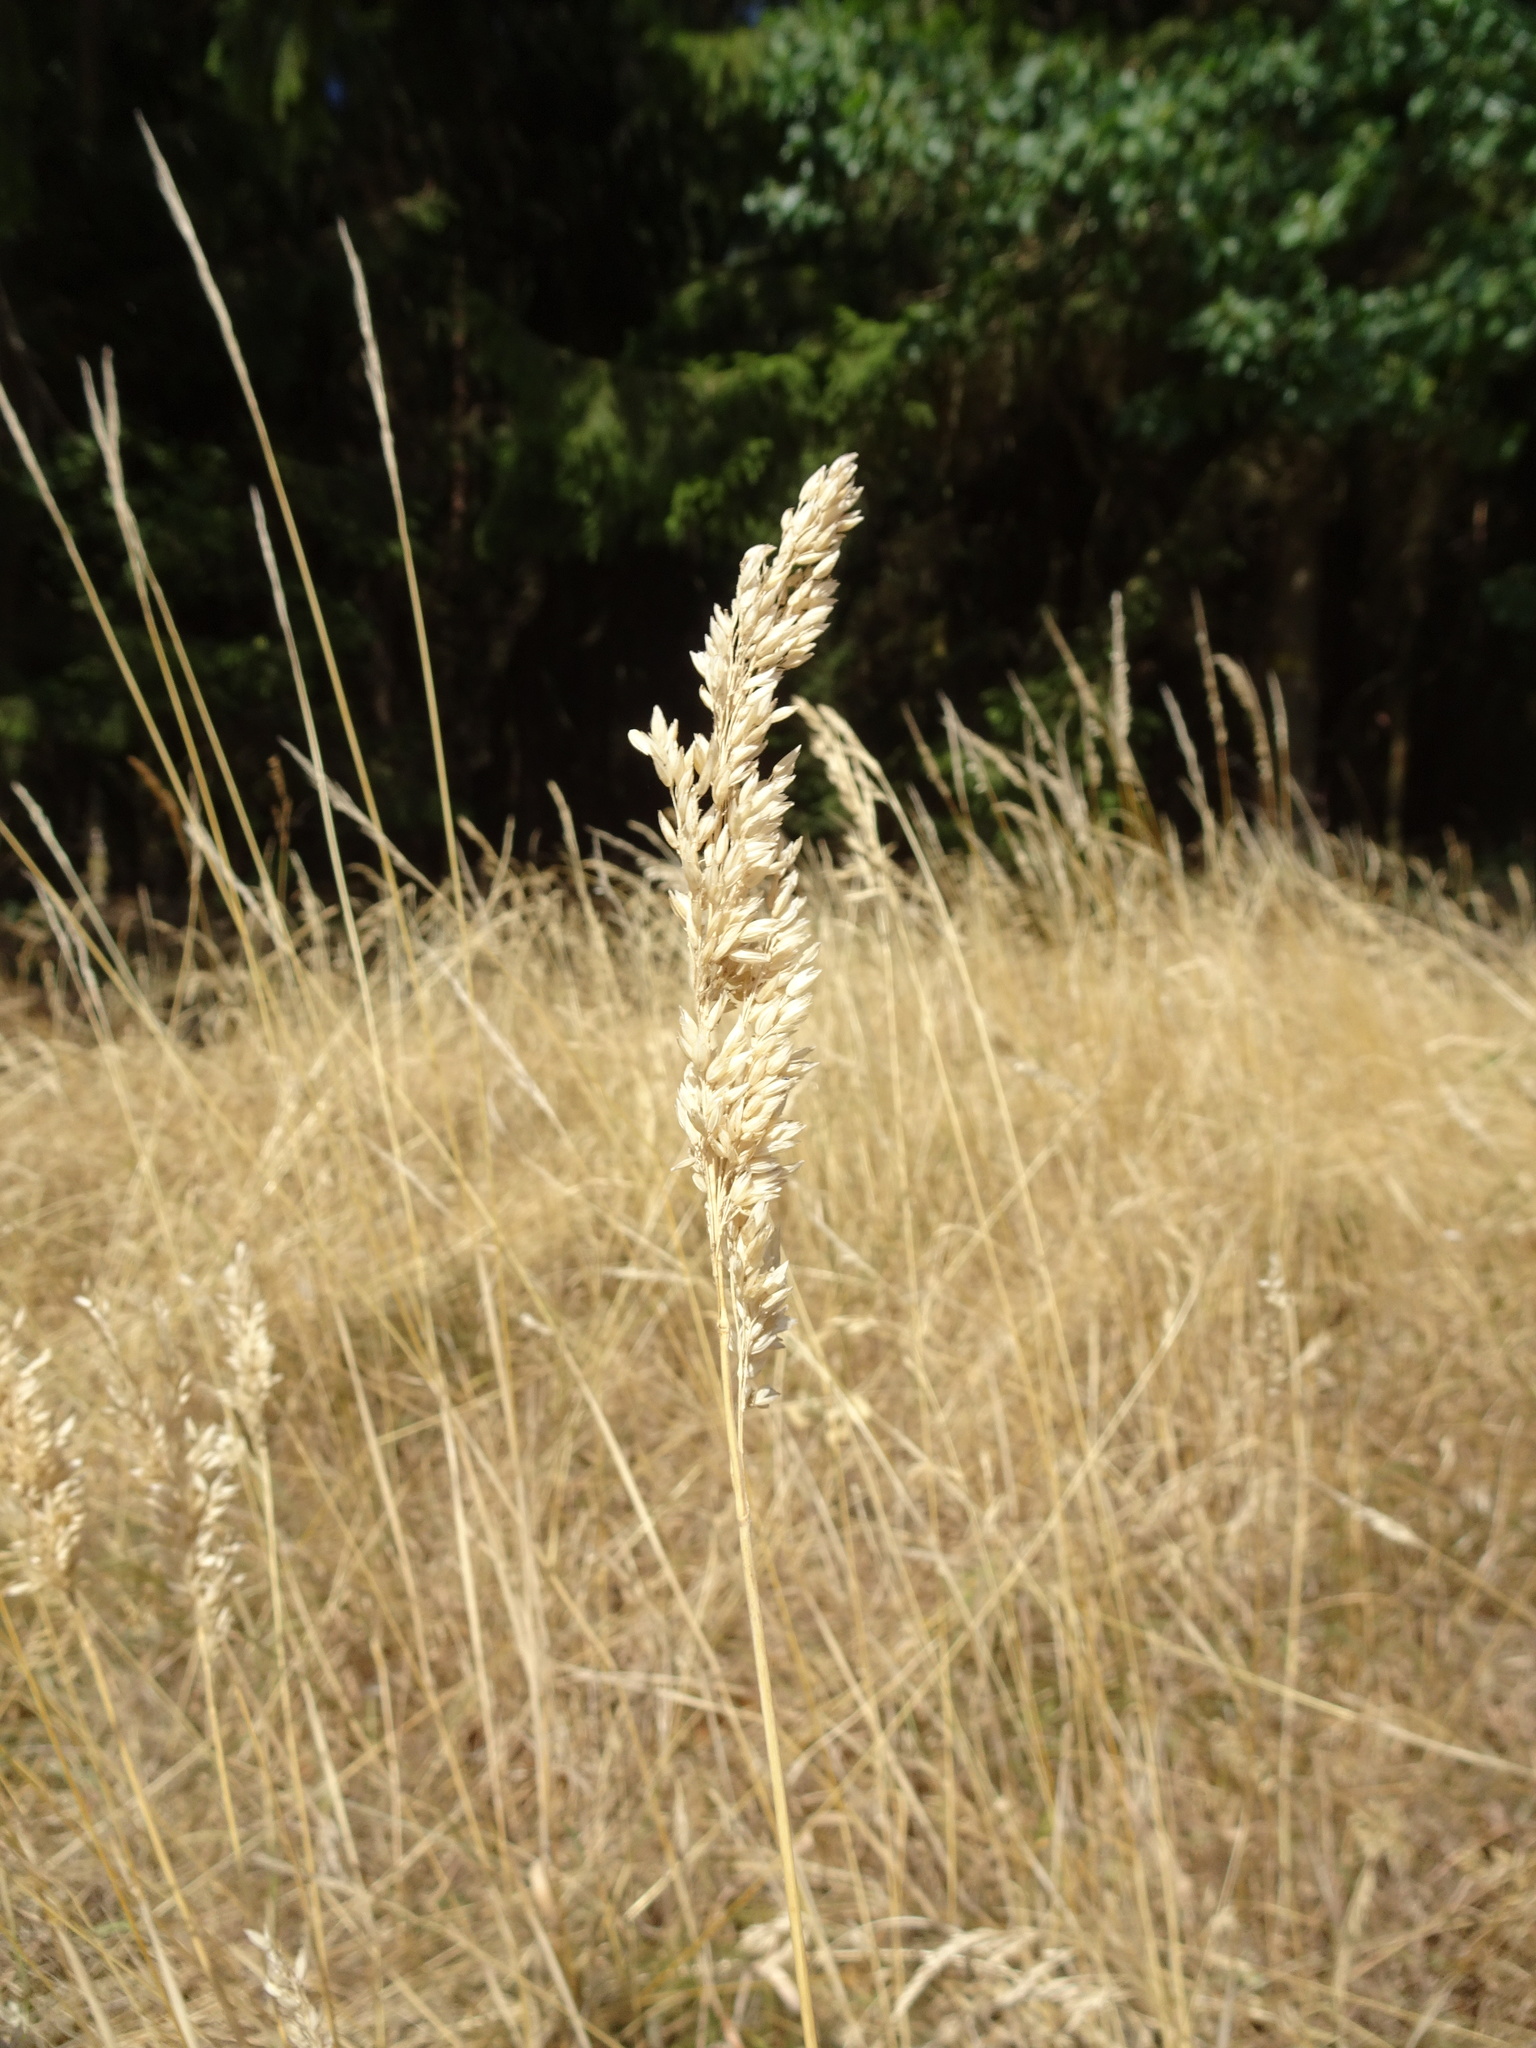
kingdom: Plantae
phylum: Tracheophyta
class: Liliopsida
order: Poales
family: Poaceae
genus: Holcus
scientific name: Holcus lanatus
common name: Yorkshire-fog
